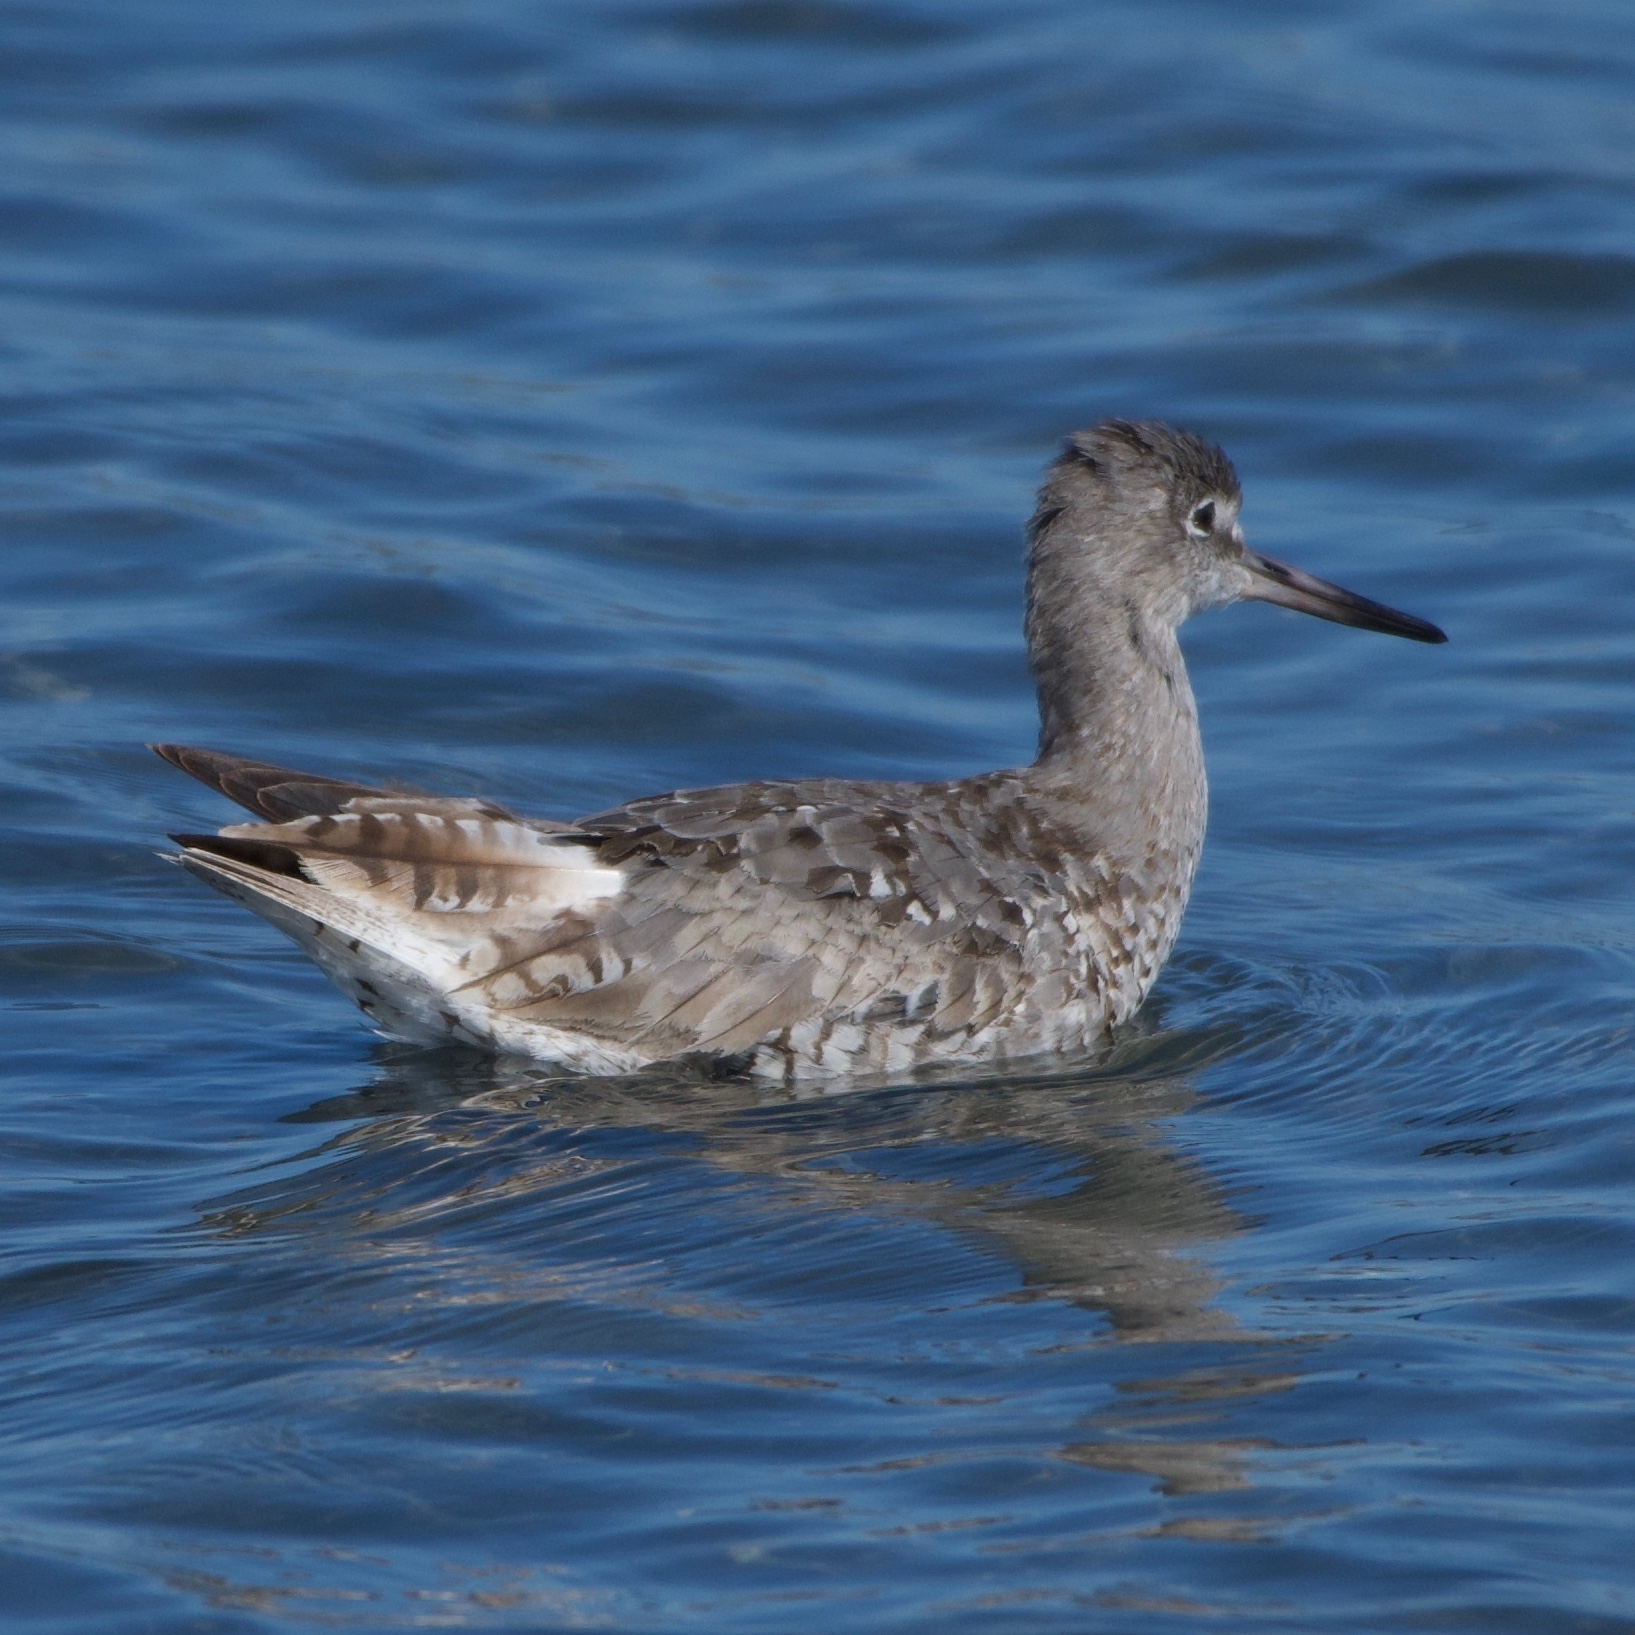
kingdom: Animalia
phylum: Chordata
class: Aves
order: Charadriiformes
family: Scolopacidae
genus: Tringa
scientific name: Tringa semipalmata
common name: Willet
